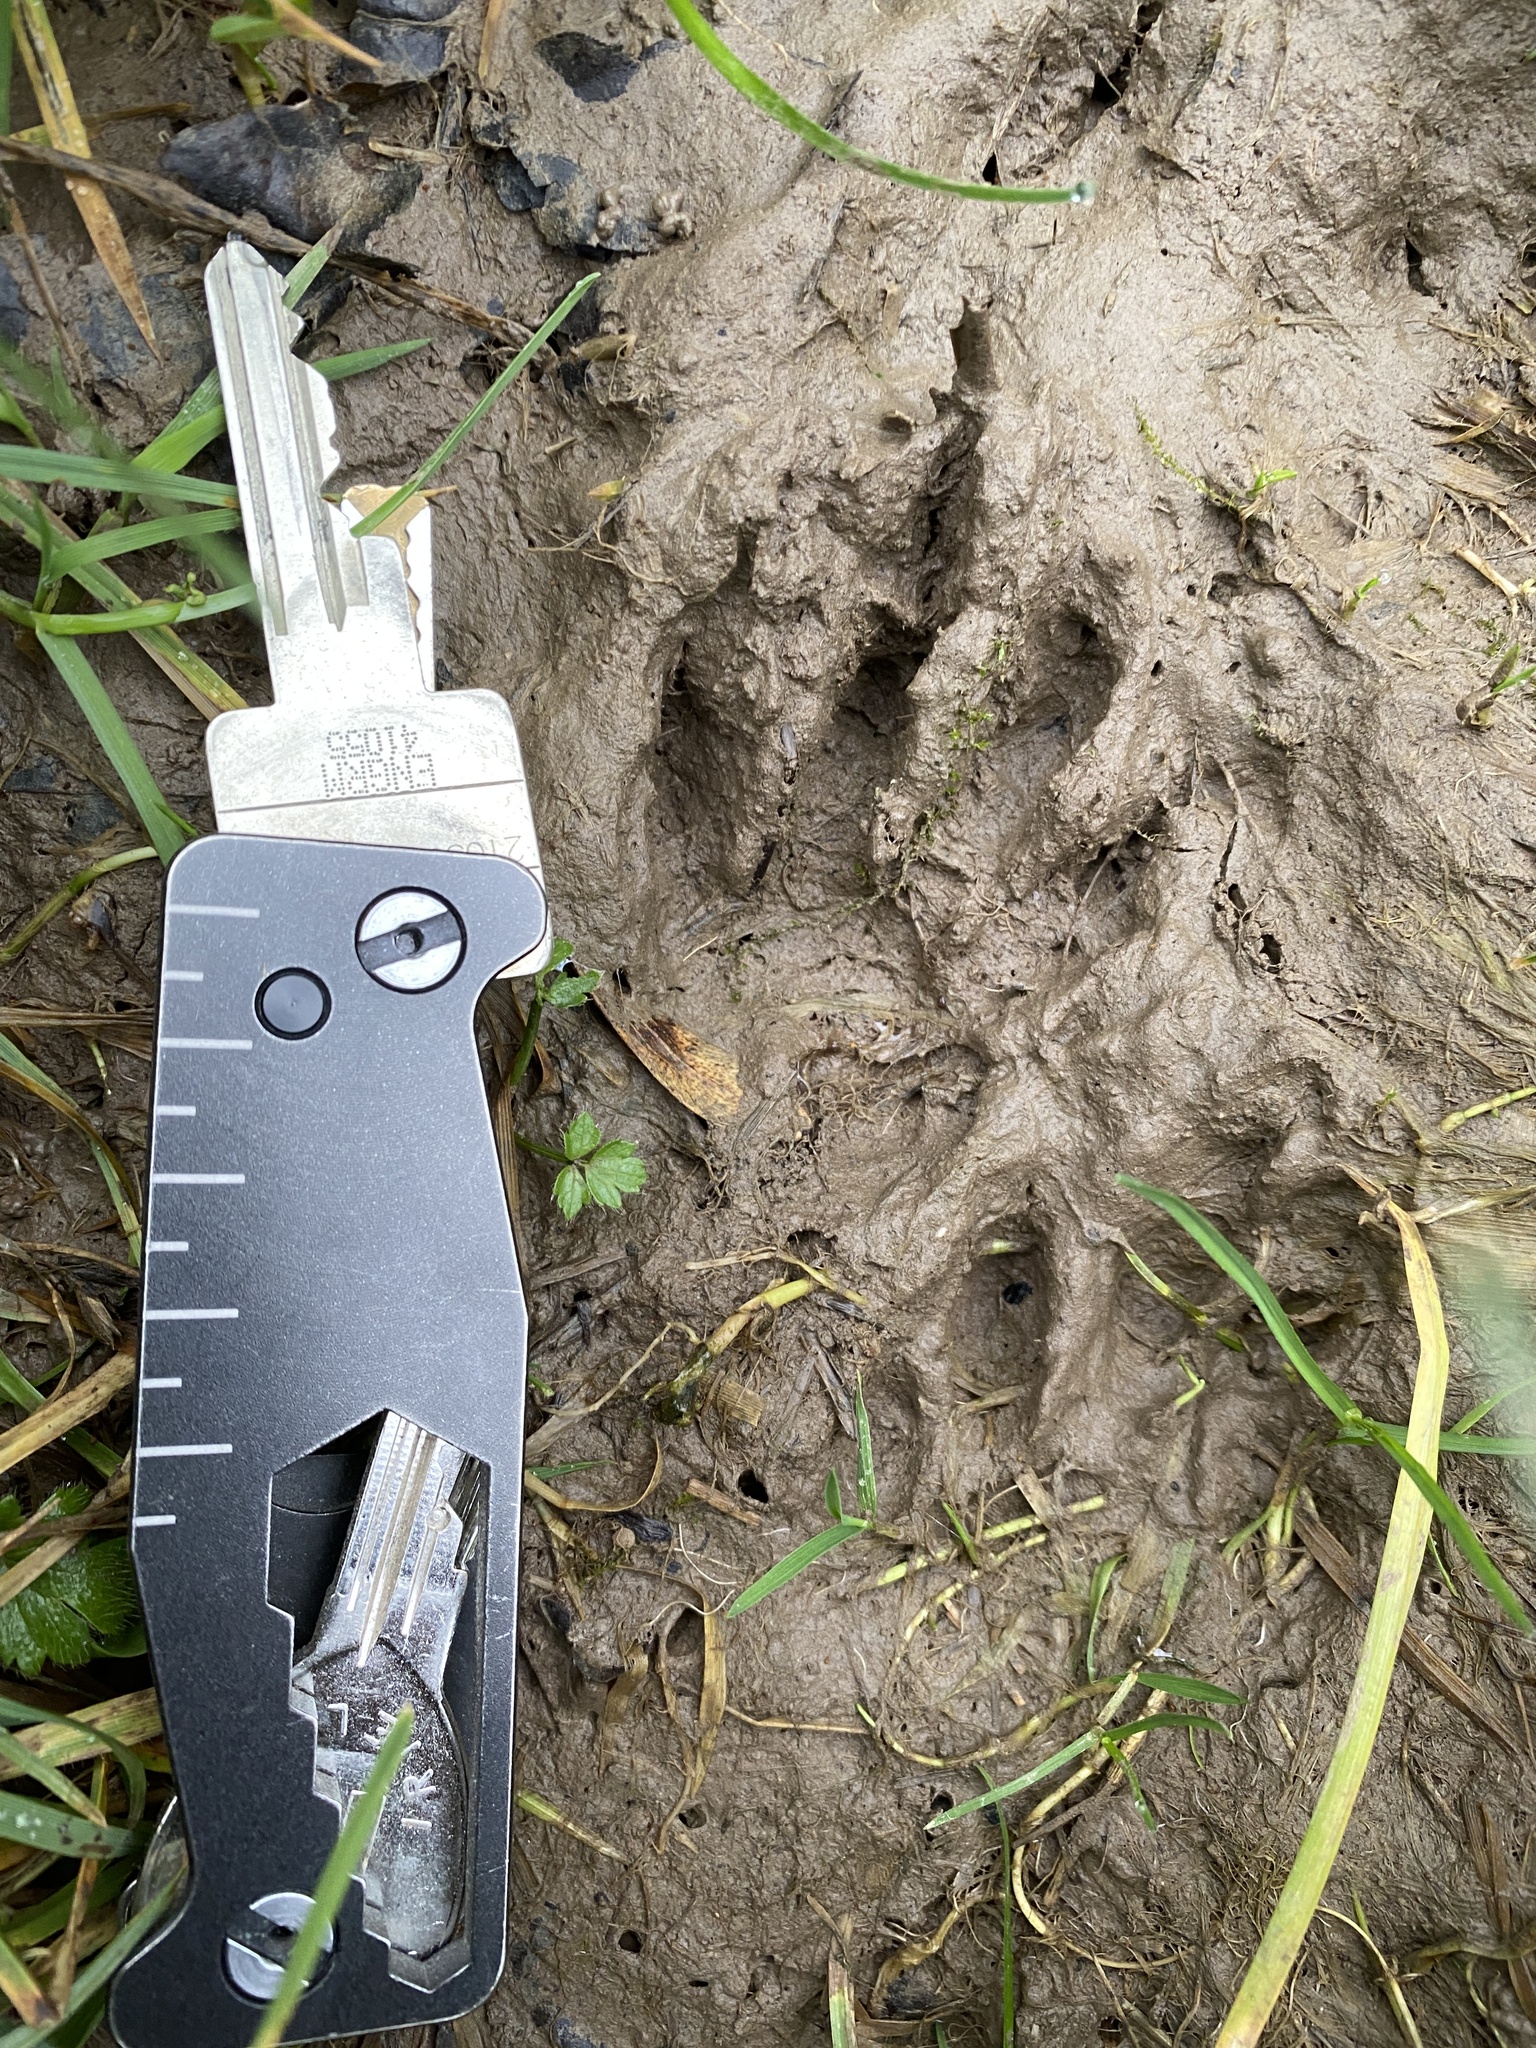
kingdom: Animalia
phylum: Chordata
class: Mammalia
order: Carnivora
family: Mustelidae
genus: Meles
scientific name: Meles meles
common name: Eurasian badger
